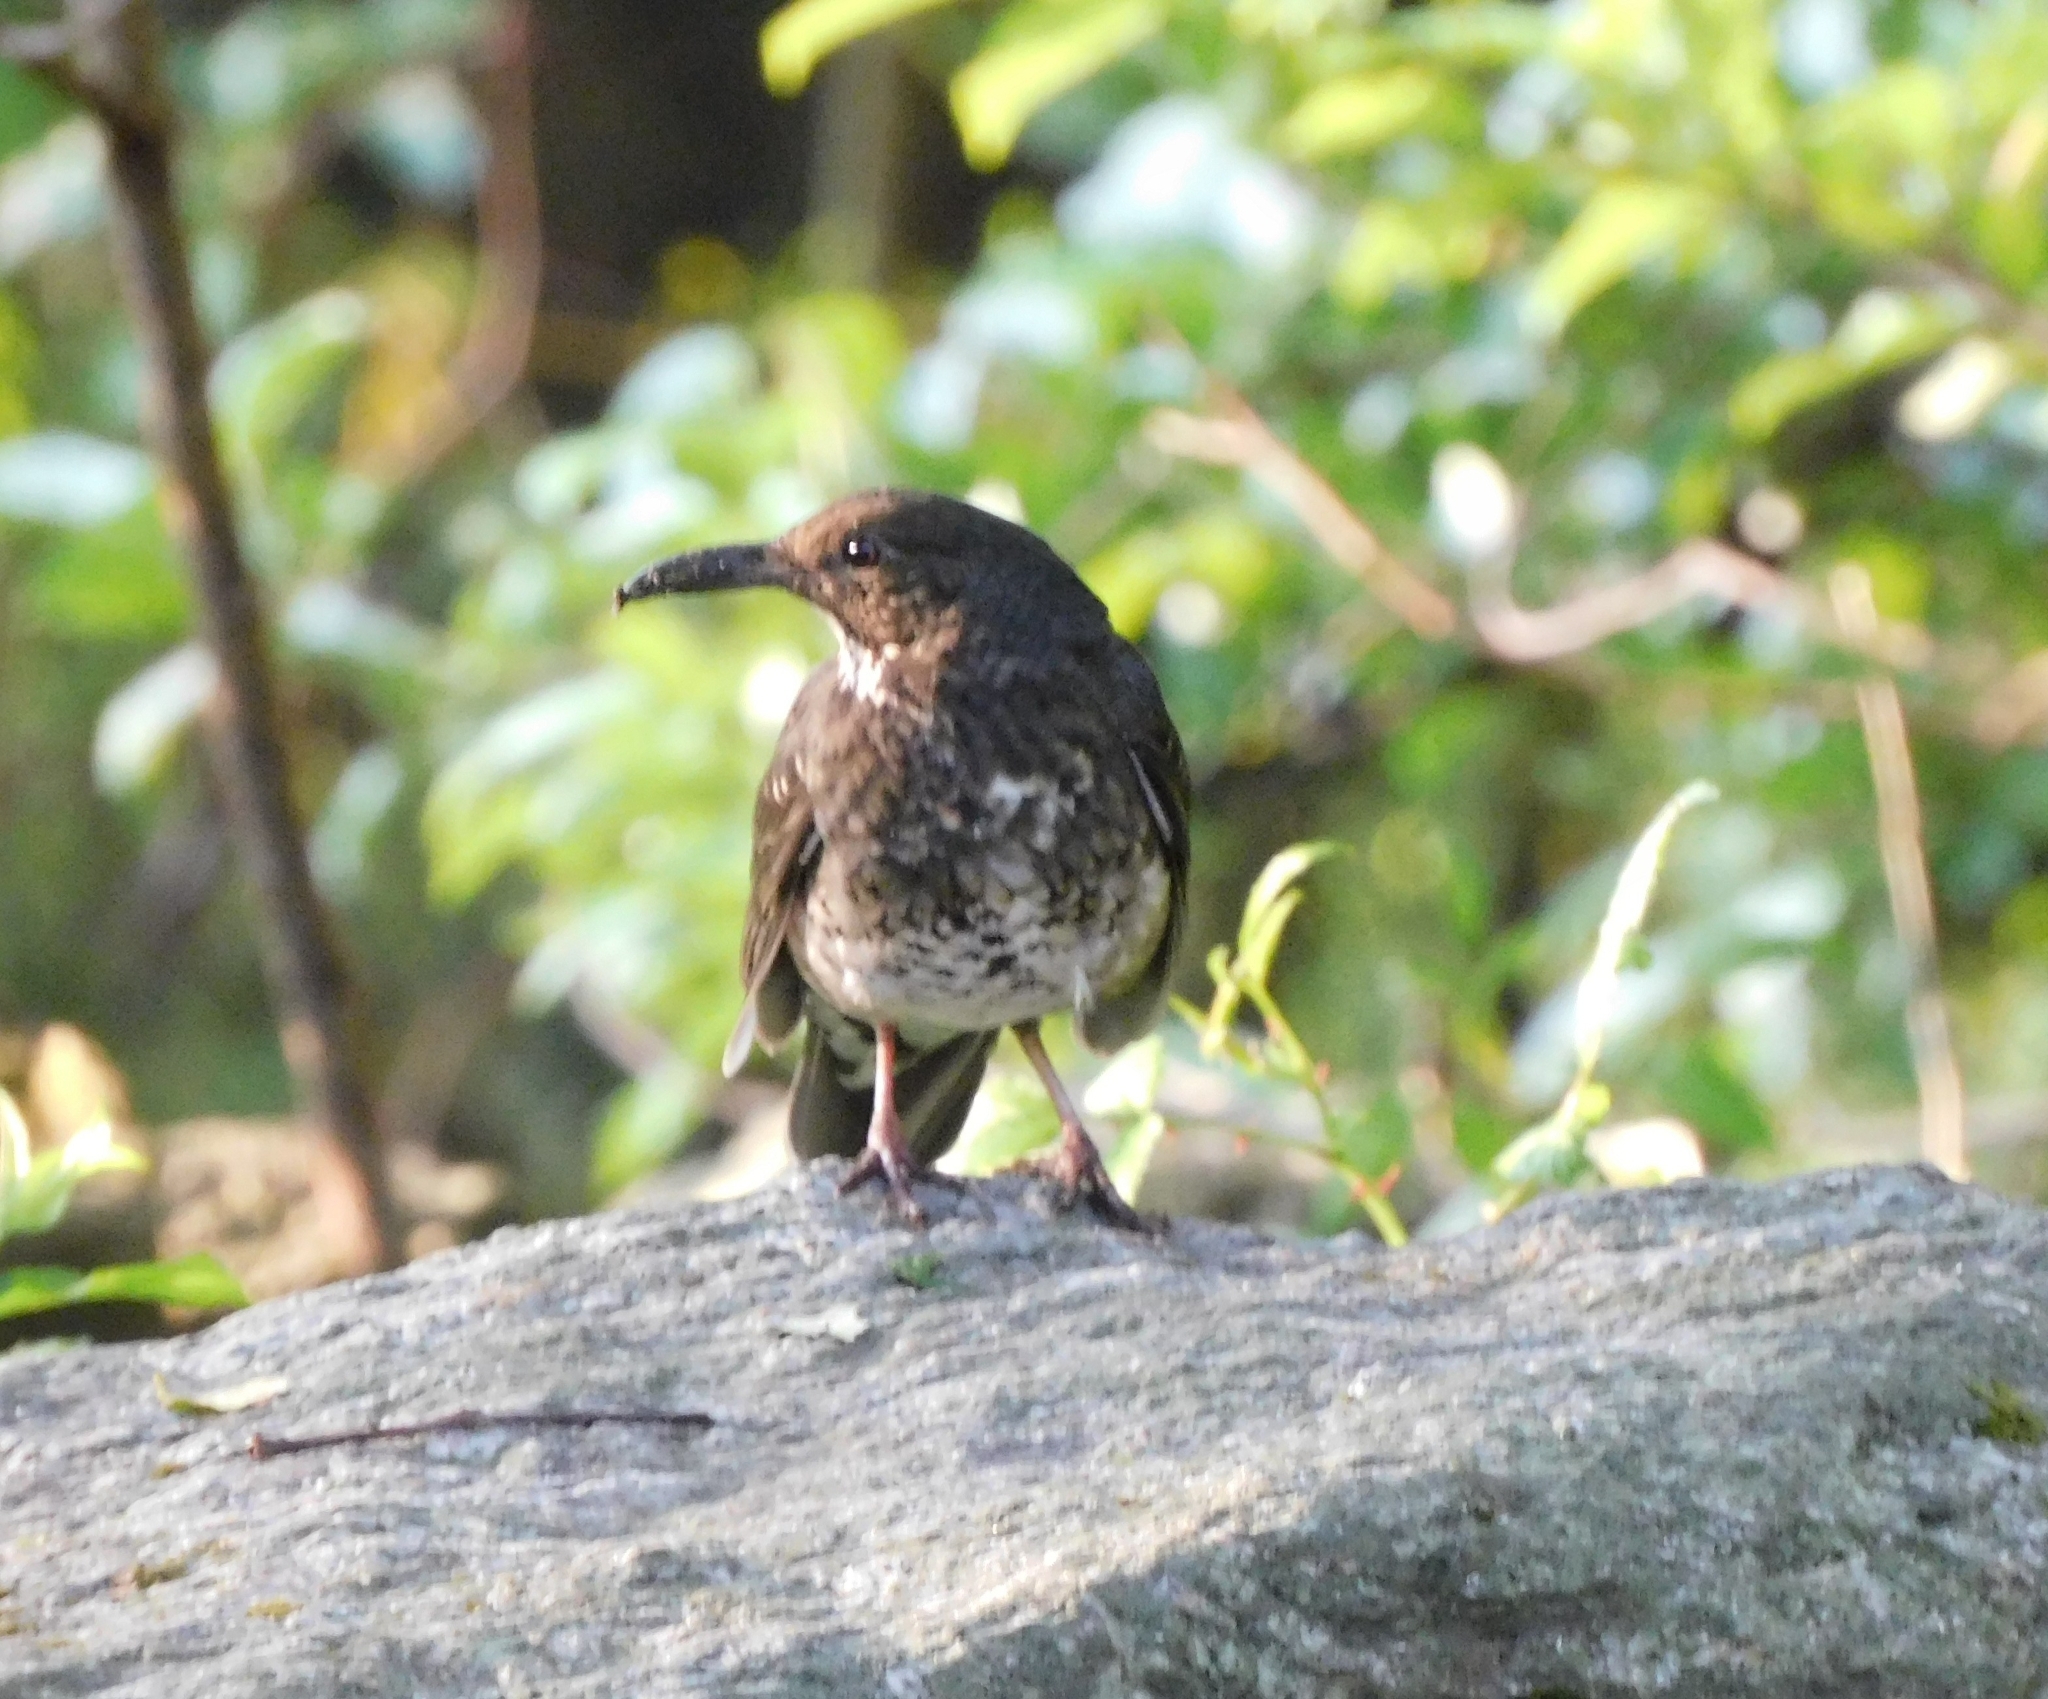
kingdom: Animalia
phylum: Chordata
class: Aves
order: Passeriformes
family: Turdidae
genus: Zoothera
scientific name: Zoothera monticola
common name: Long-billed thrush
